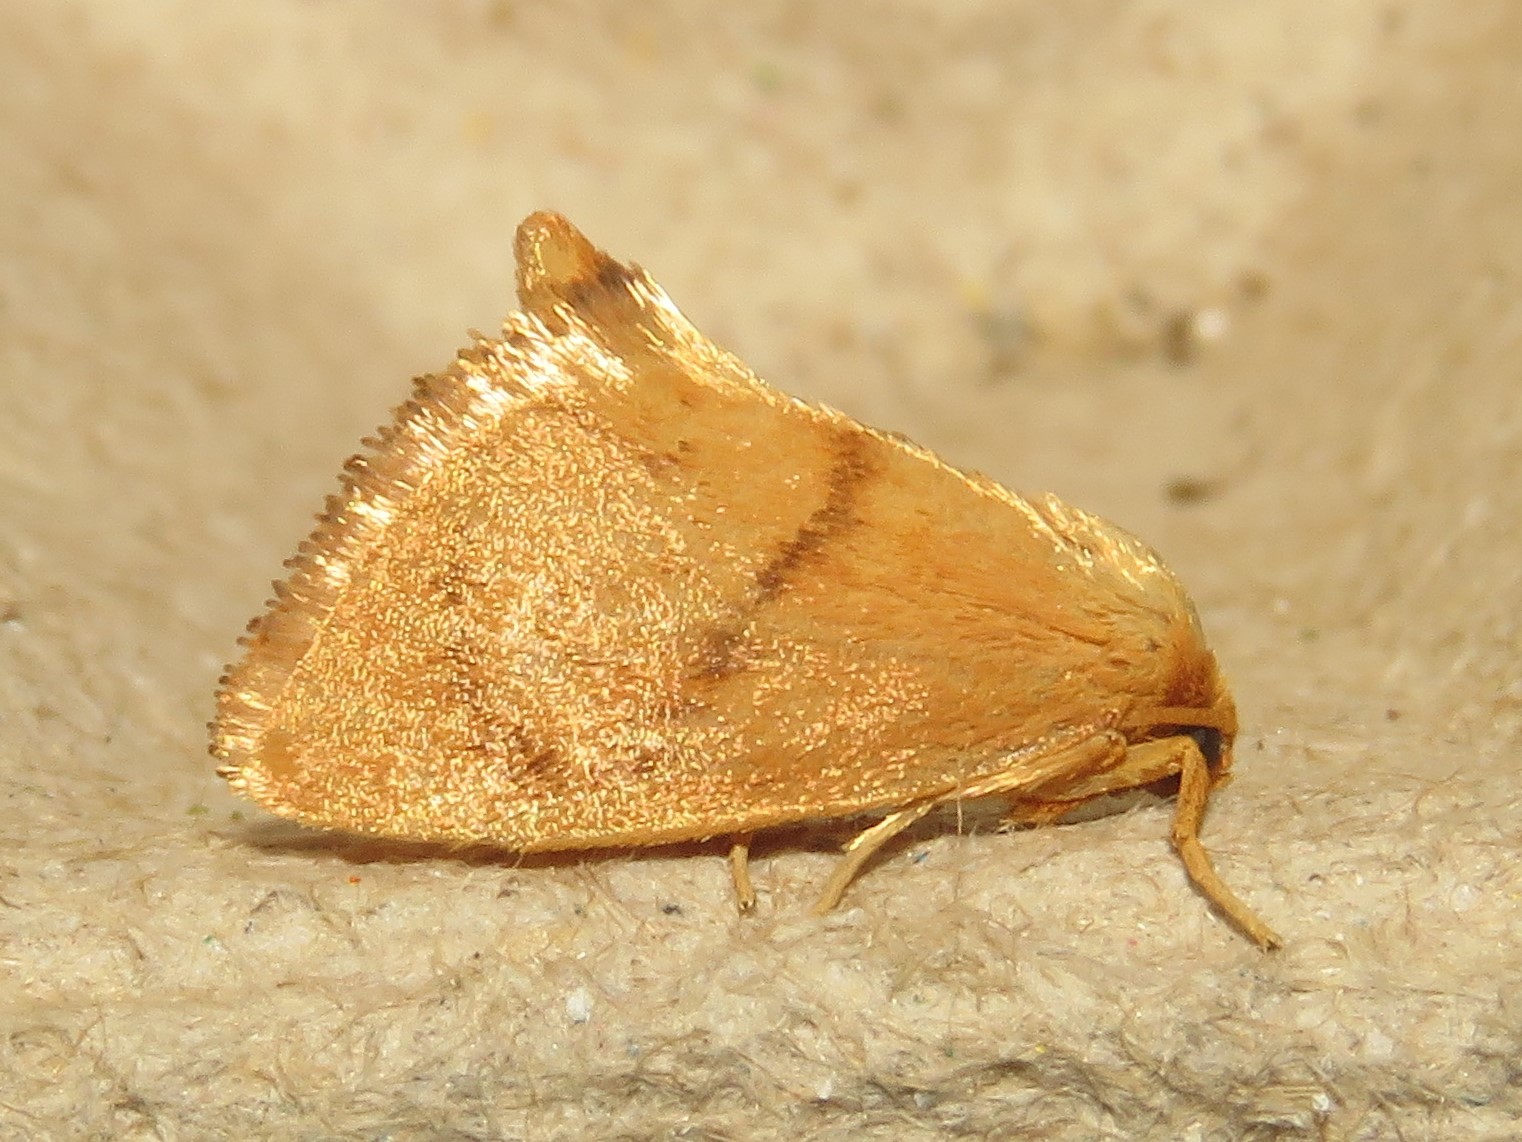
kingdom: Animalia
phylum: Arthropoda
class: Insecta
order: Lepidoptera
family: Limacodidae
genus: Tortricidia
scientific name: Tortricidia flexuosa
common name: Abbreviated button slug moth
